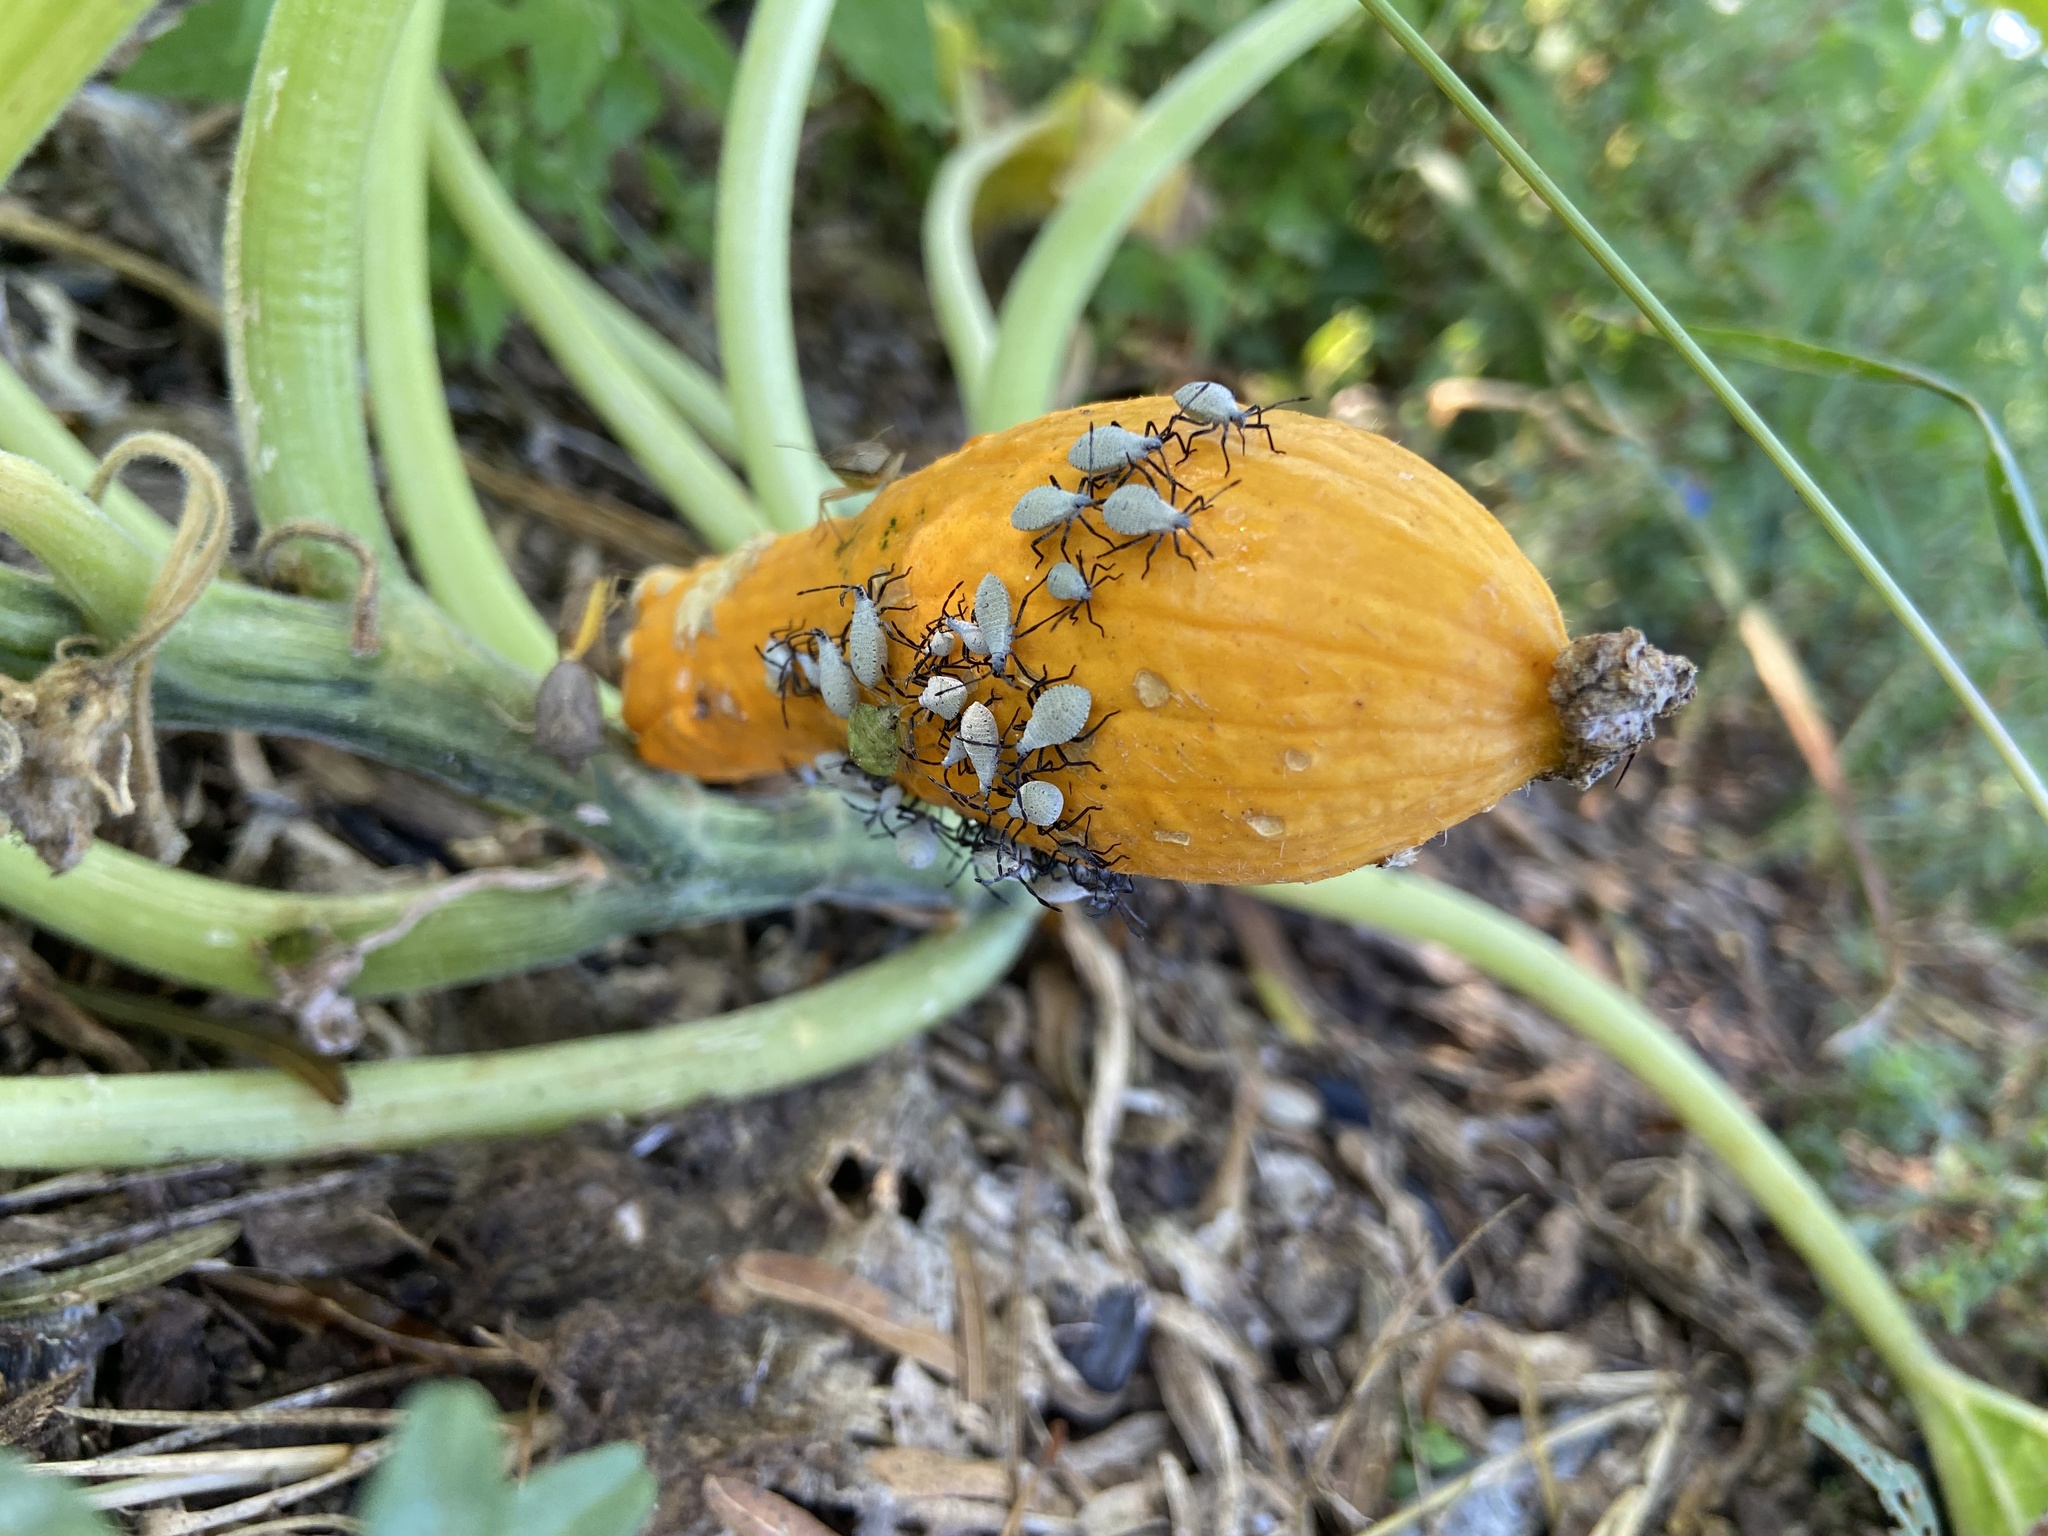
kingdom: Animalia
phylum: Arthropoda
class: Insecta
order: Hemiptera
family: Coreidae
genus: Anasa
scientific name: Anasa tristis
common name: Squash bug
